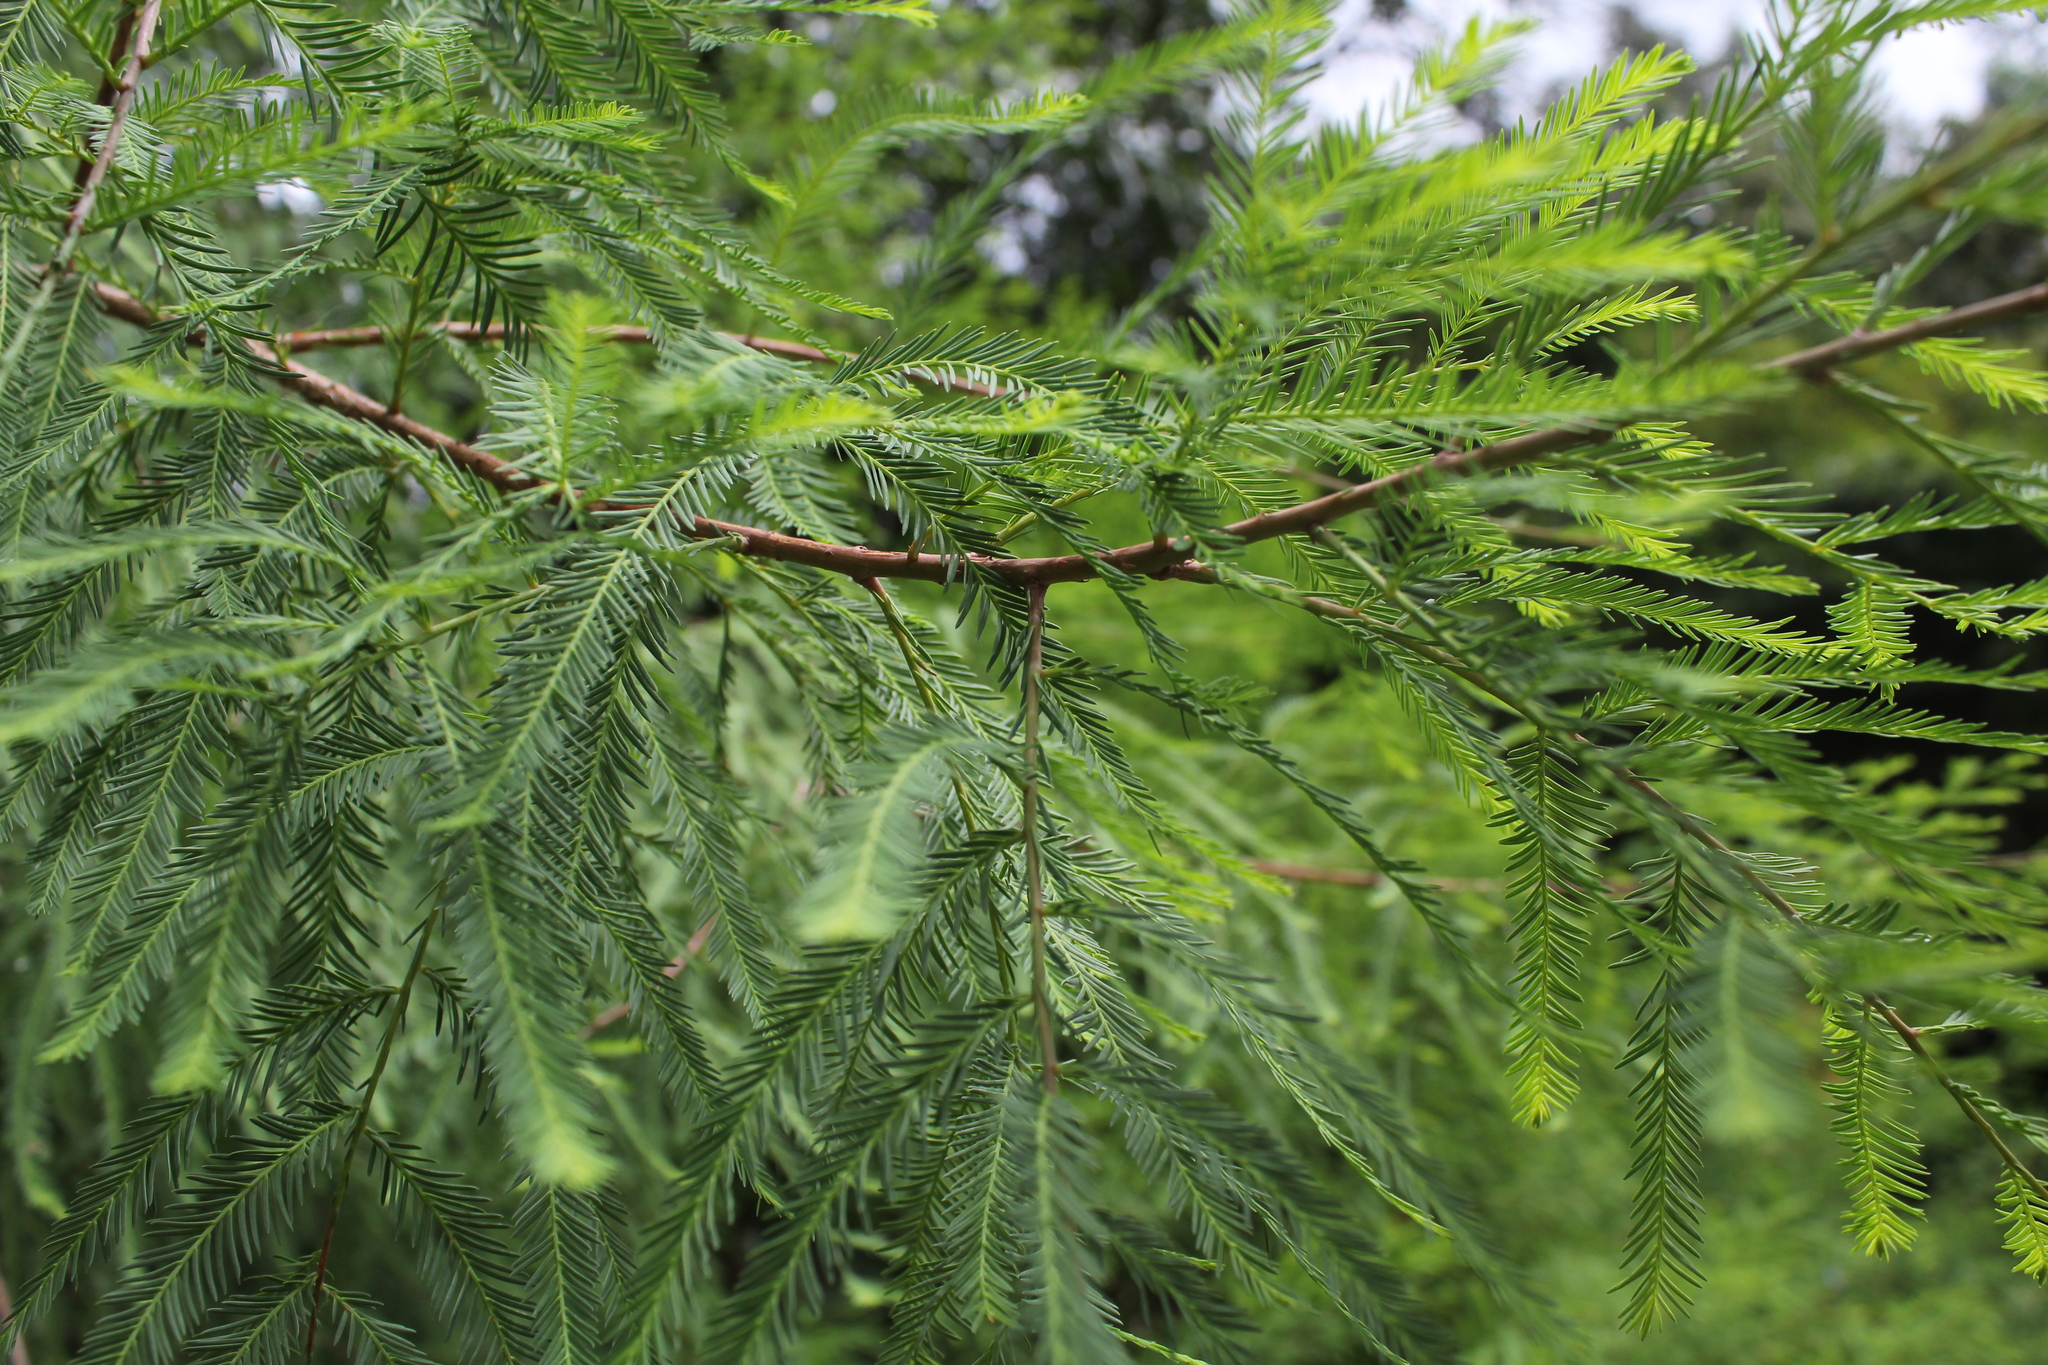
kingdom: Plantae
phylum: Tracheophyta
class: Pinopsida
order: Pinales
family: Cupressaceae
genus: Taxodium
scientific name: Taxodium mucronatum
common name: Montezume bald cypress
